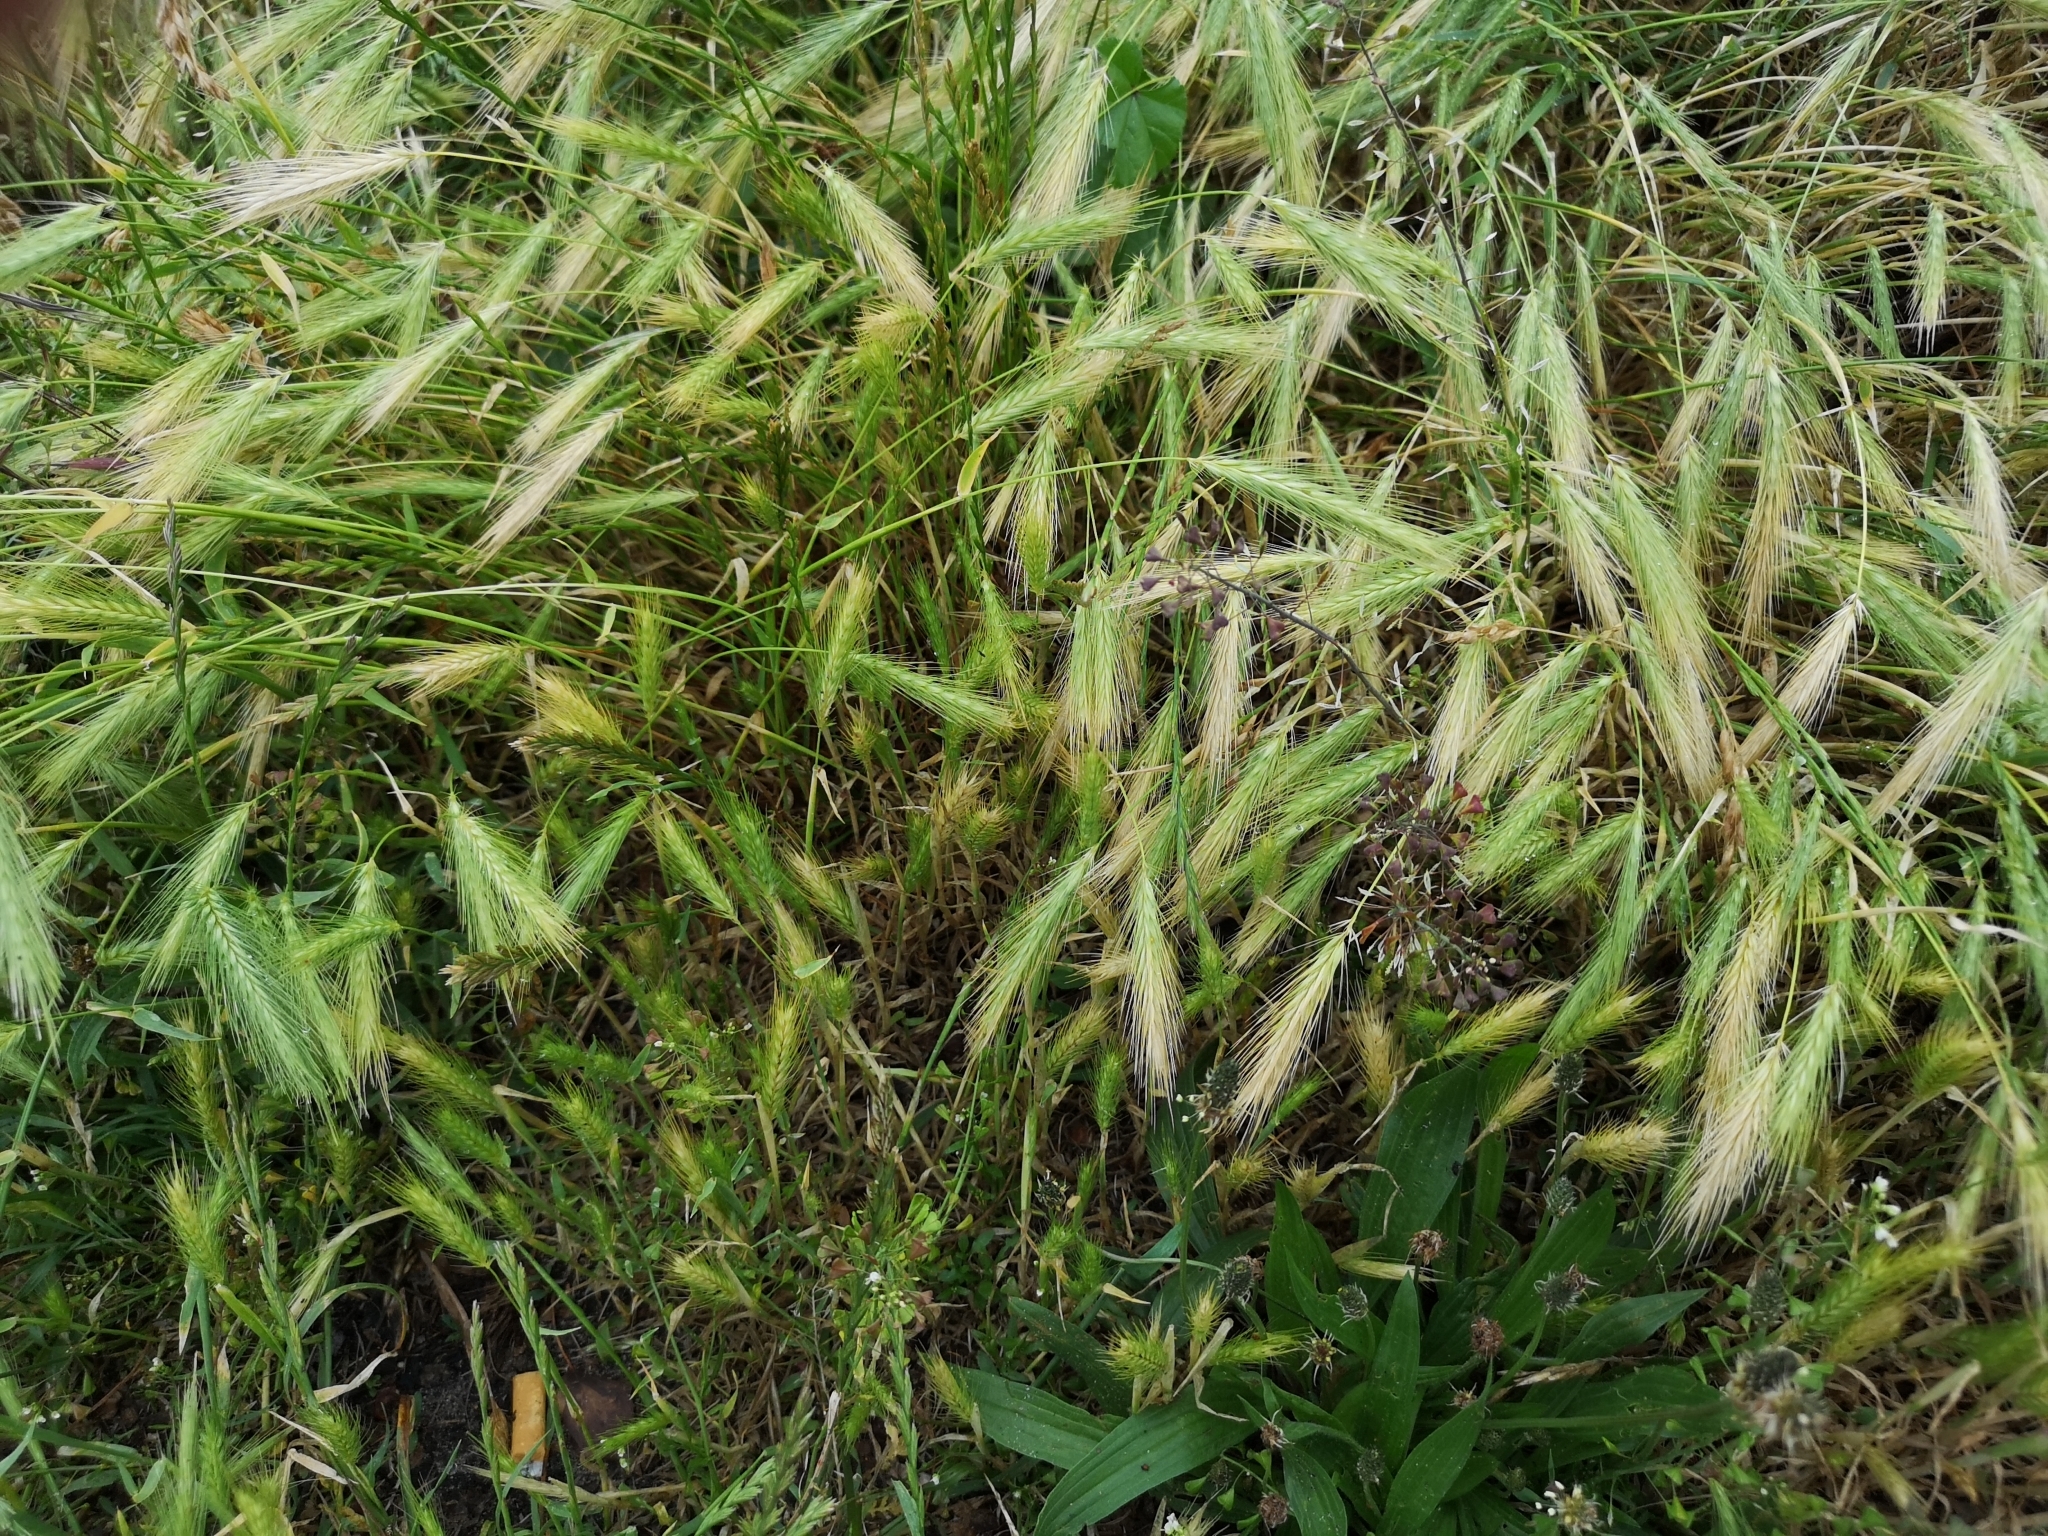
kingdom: Plantae
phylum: Tracheophyta
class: Liliopsida
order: Poales
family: Poaceae
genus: Hordeum
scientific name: Hordeum murinum
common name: Wall barley
